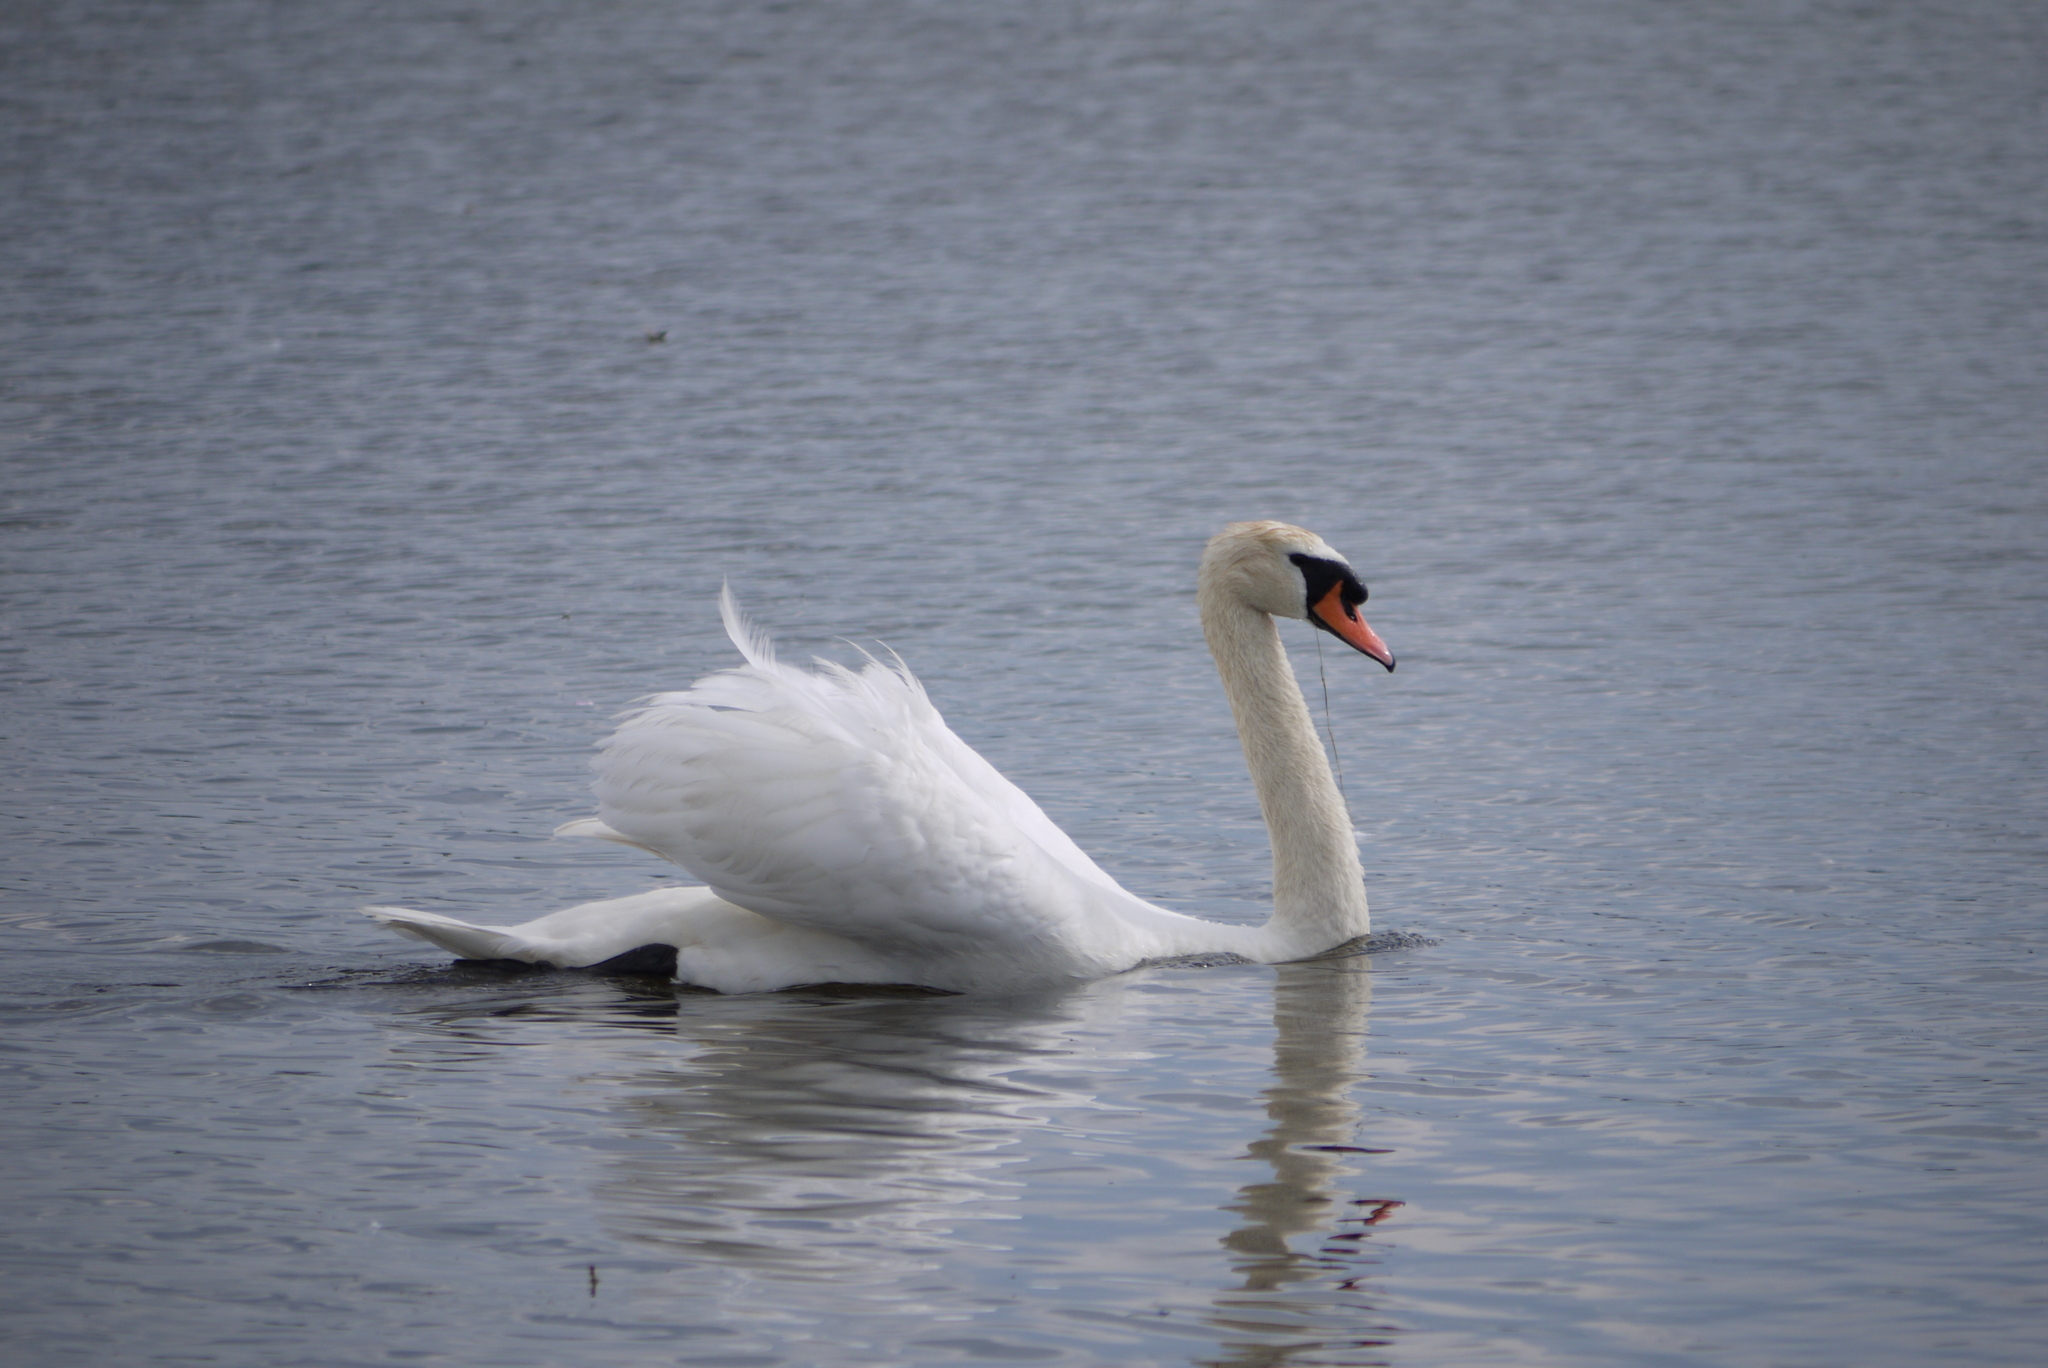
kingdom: Animalia
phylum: Chordata
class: Aves
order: Anseriformes
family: Anatidae
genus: Cygnus
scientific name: Cygnus olor
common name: Mute swan
